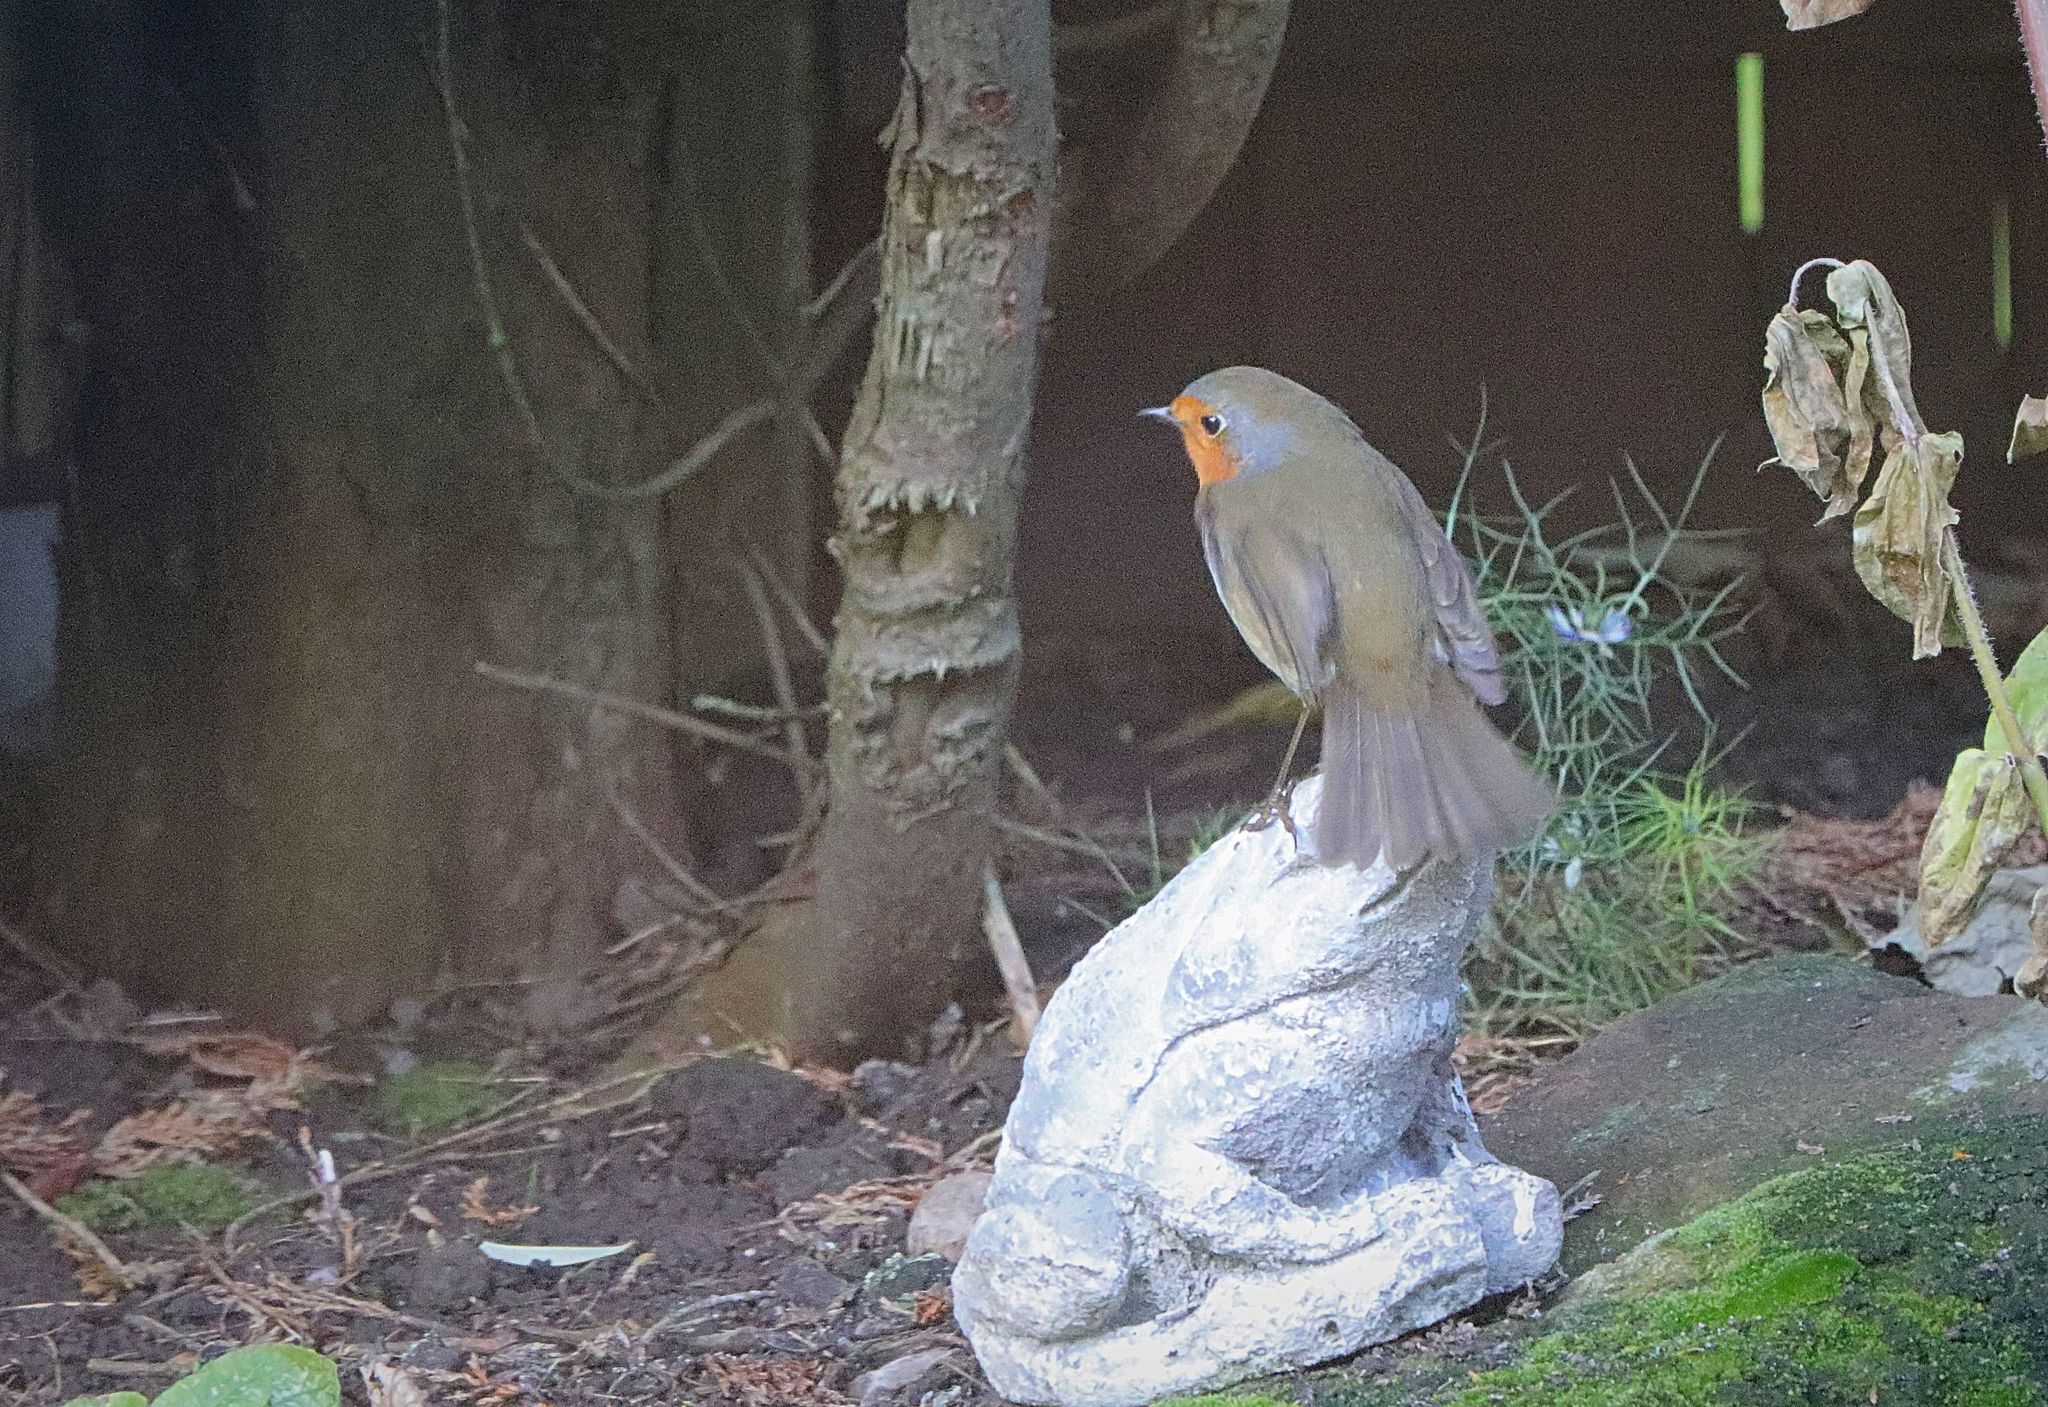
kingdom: Animalia
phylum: Chordata
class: Aves
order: Passeriformes
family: Muscicapidae
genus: Erithacus
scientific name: Erithacus rubecula
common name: European robin
